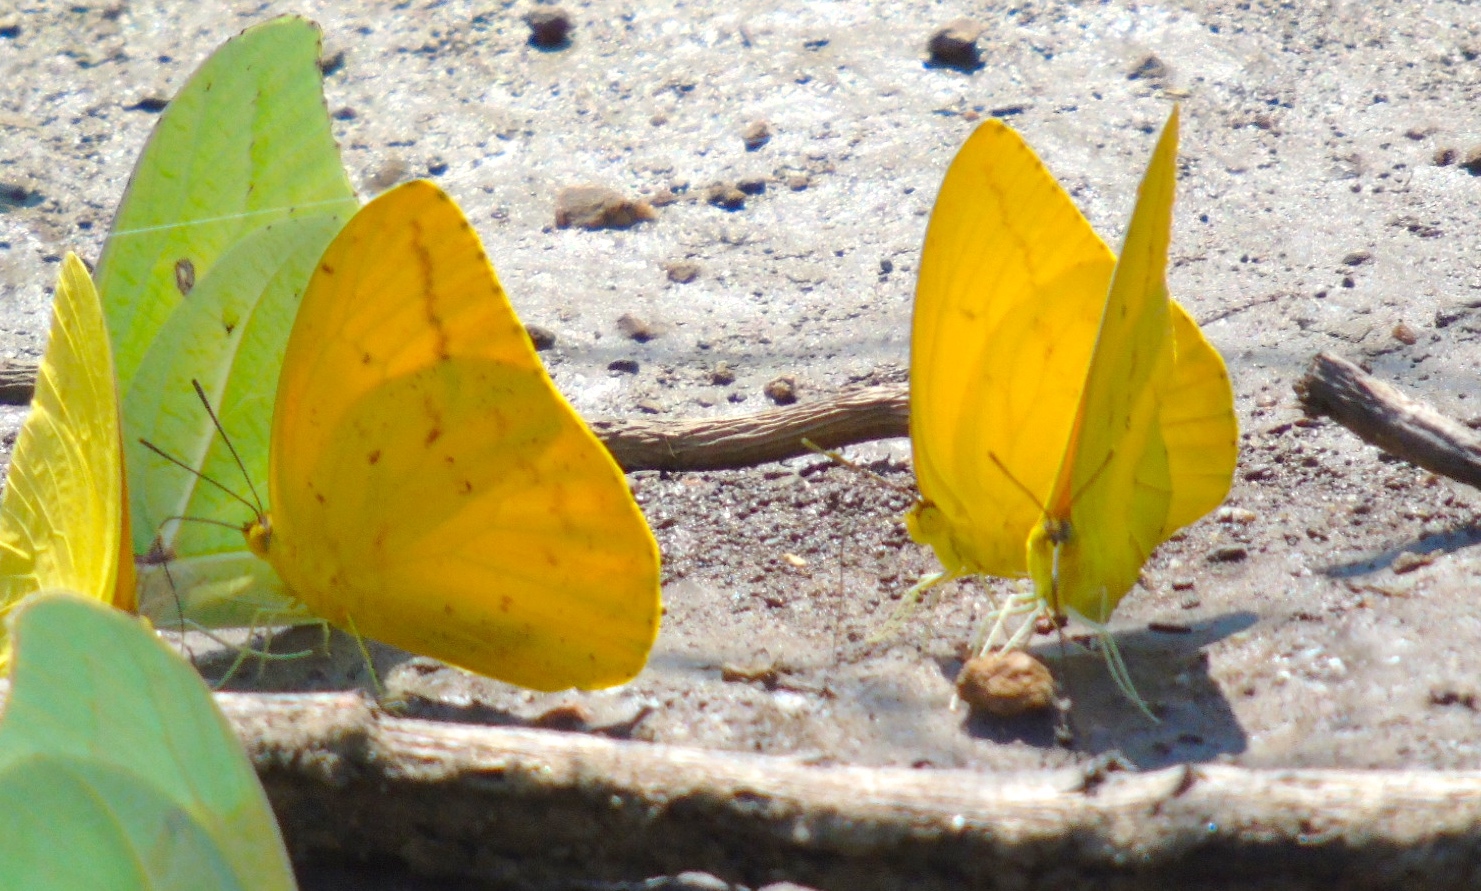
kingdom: Animalia
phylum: Arthropoda
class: Insecta
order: Lepidoptera
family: Pieridae
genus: Phoebis
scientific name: Phoebis agarithe
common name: Large orange sulphur
